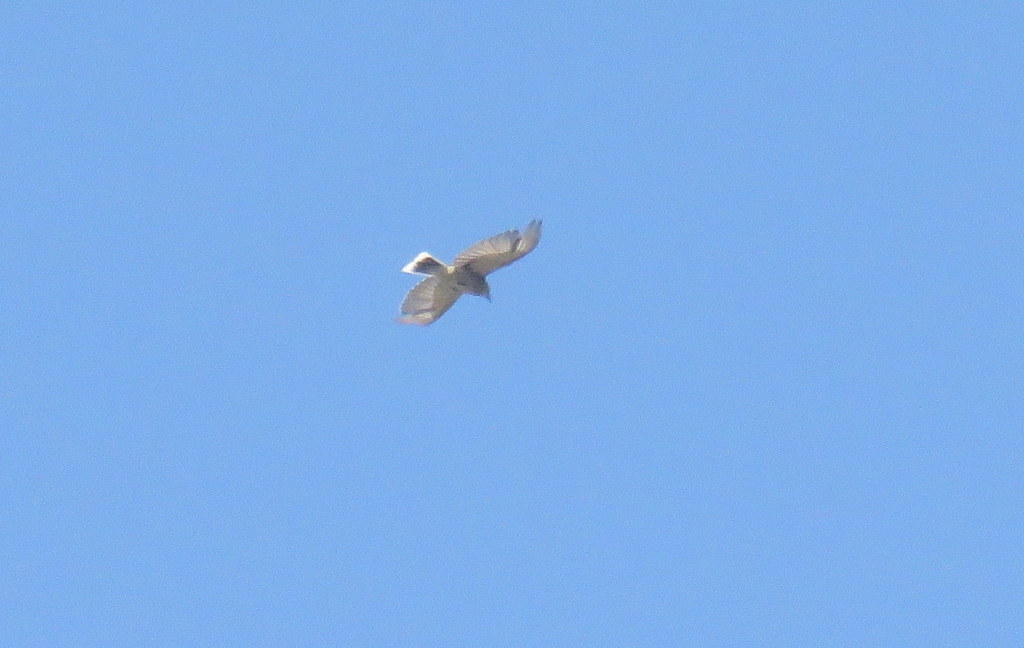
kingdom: Animalia
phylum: Chordata
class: Aves
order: Passeriformes
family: Tyrannidae
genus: Agriornis
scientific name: Agriornis montanus
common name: Black-billed shrike-tyrant
